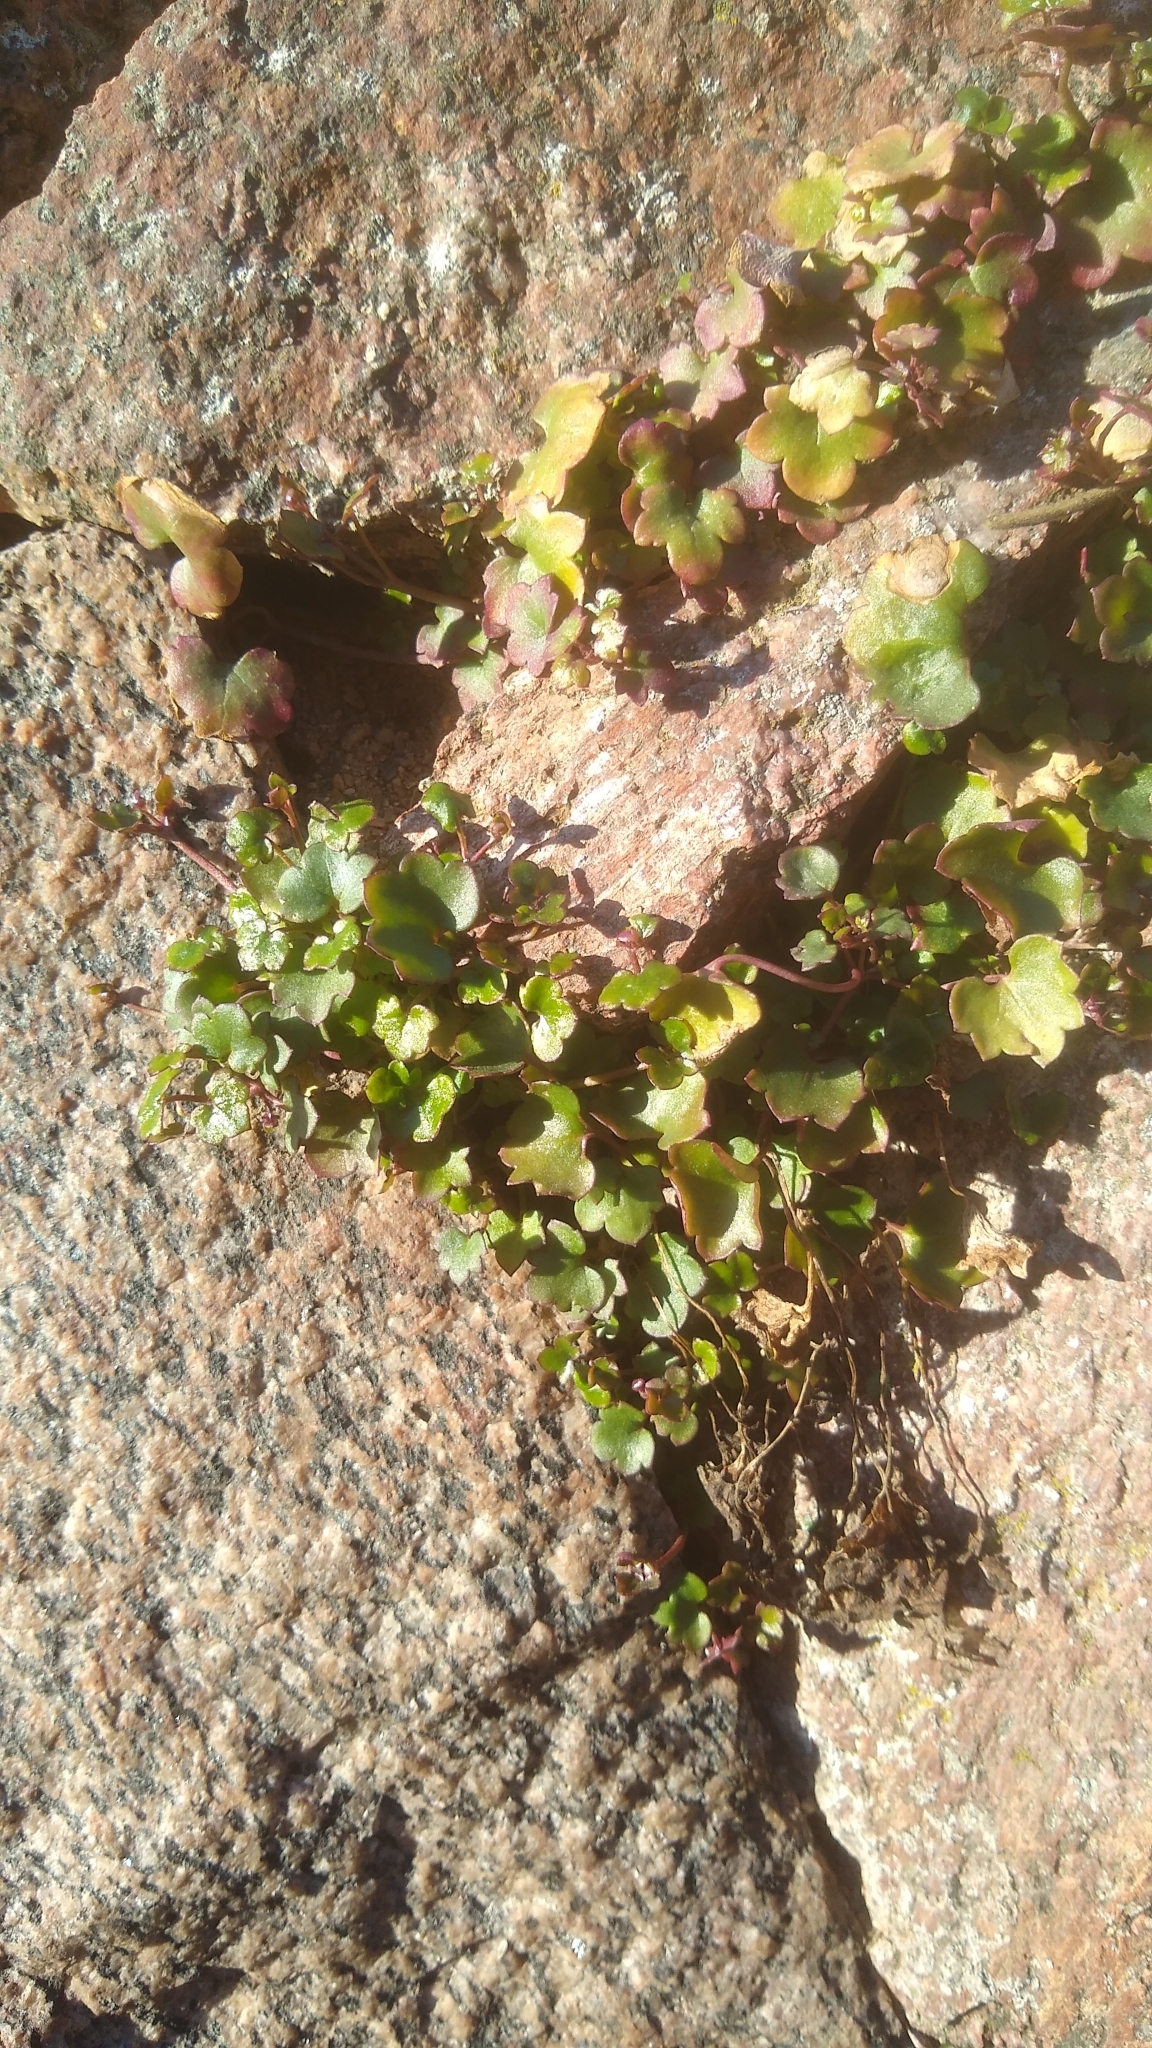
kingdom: Plantae
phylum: Tracheophyta
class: Magnoliopsida
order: Lamiales
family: Plantaginaceae
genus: Cymbalaria
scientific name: Cymbalaria muralis
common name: Ivy-leaved toadflax
